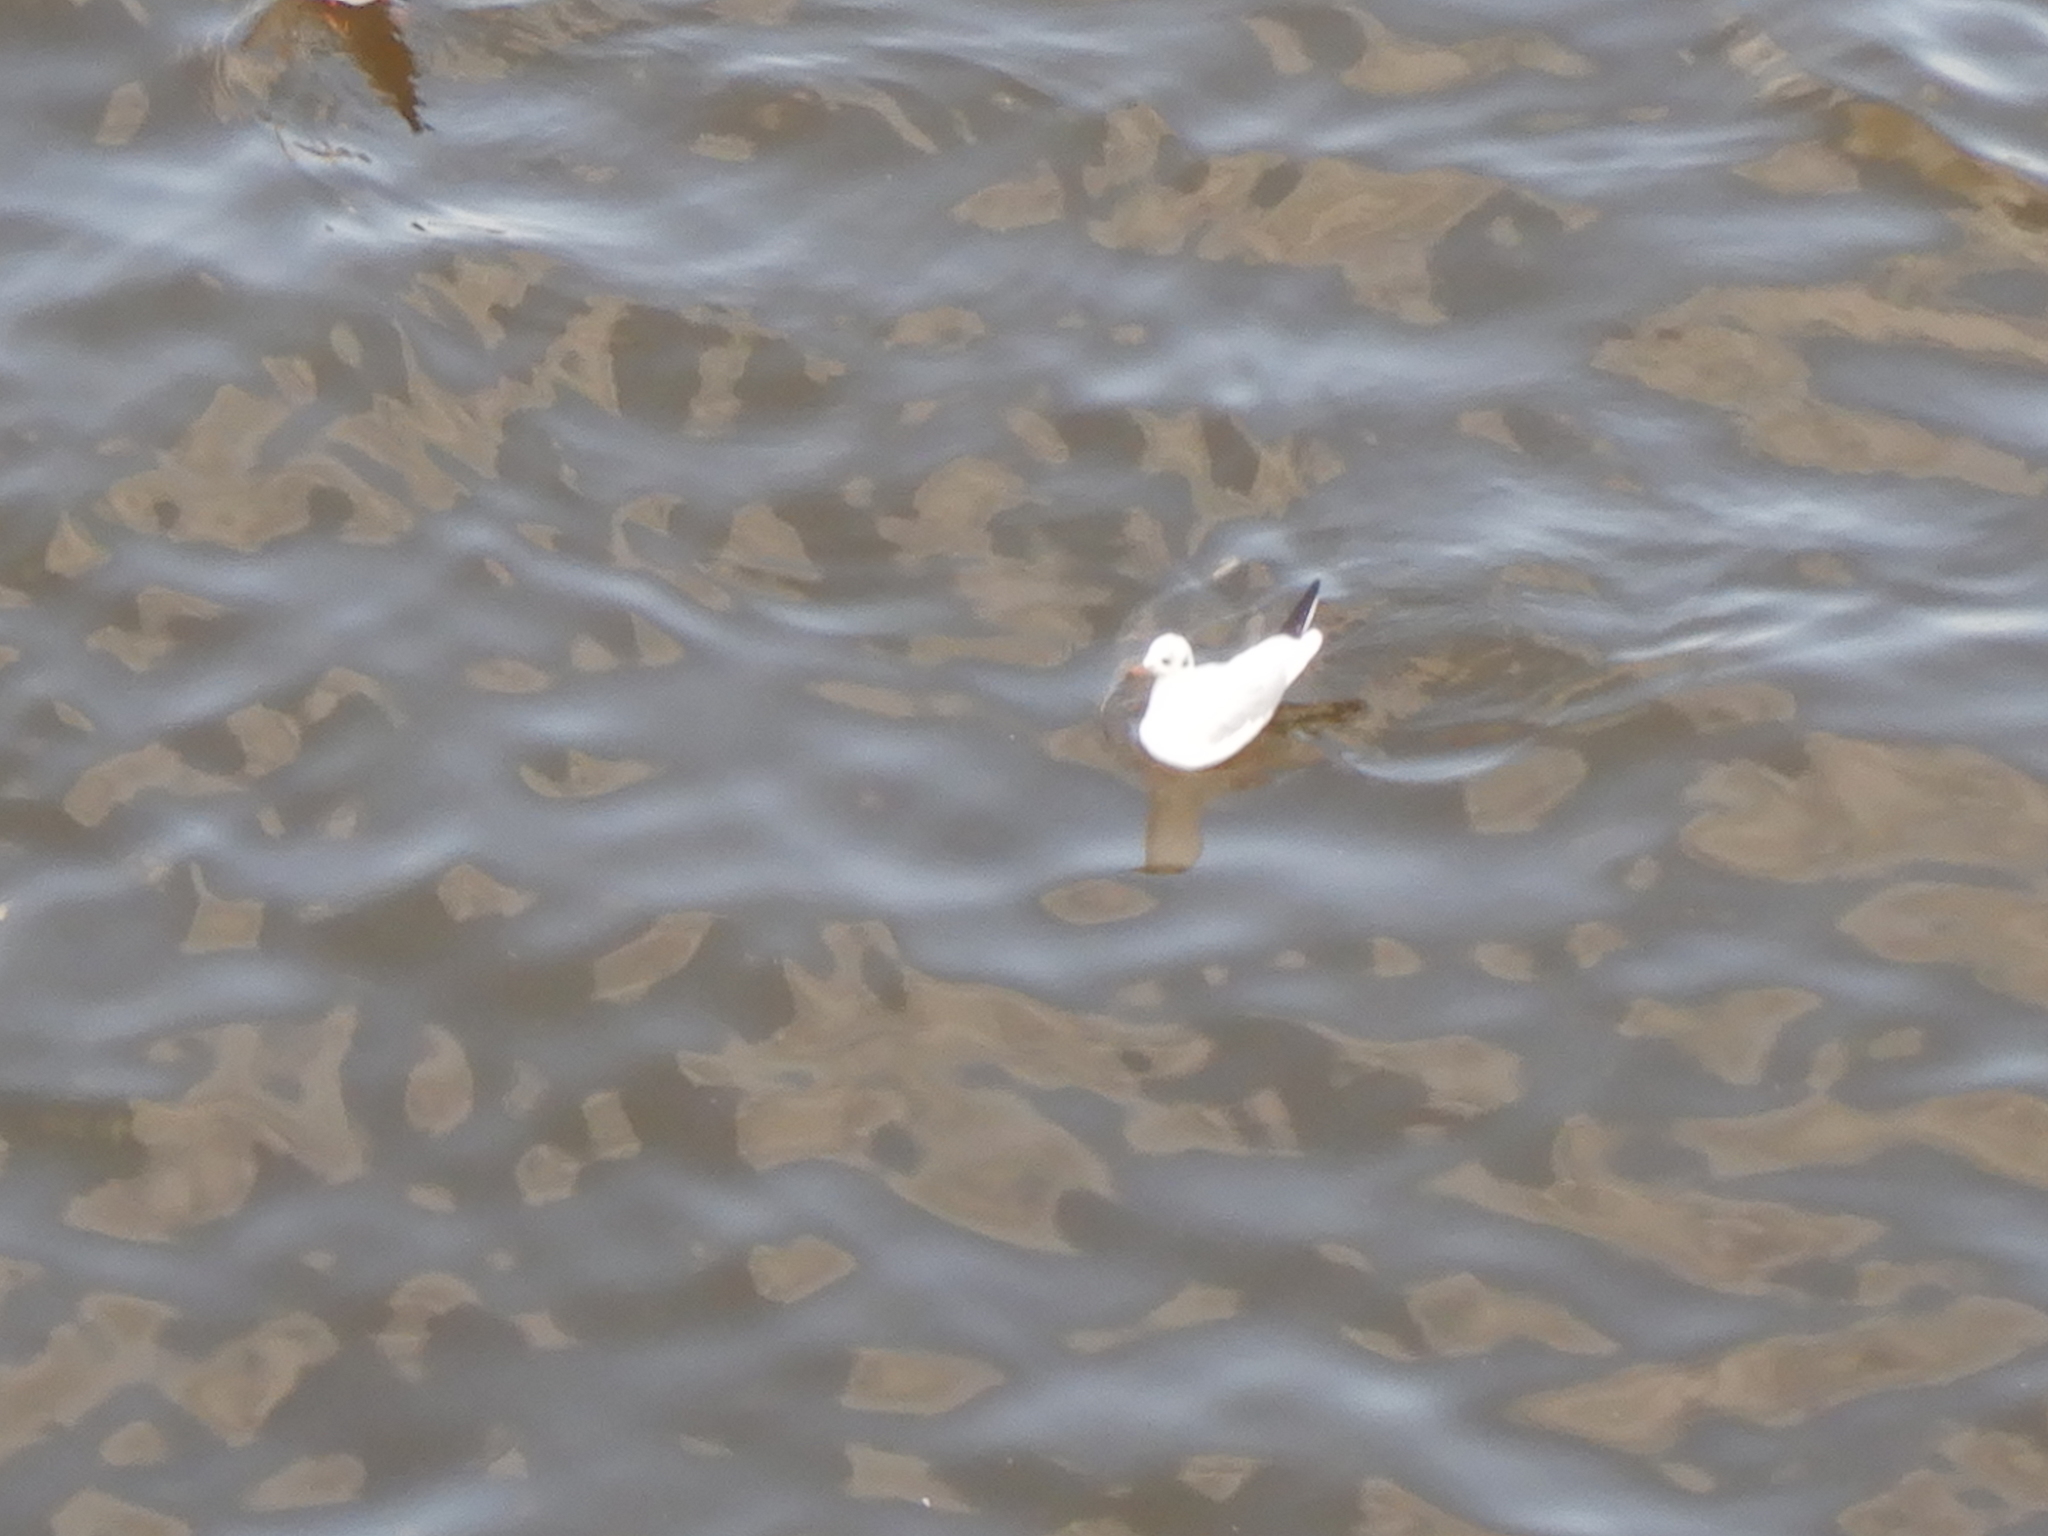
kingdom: Animalia
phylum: Chordata
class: Aves
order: Charadriiformes
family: Laridae
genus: Chroicocephalus
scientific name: Chroicocephalus ridibundus
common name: Black-headed gull
